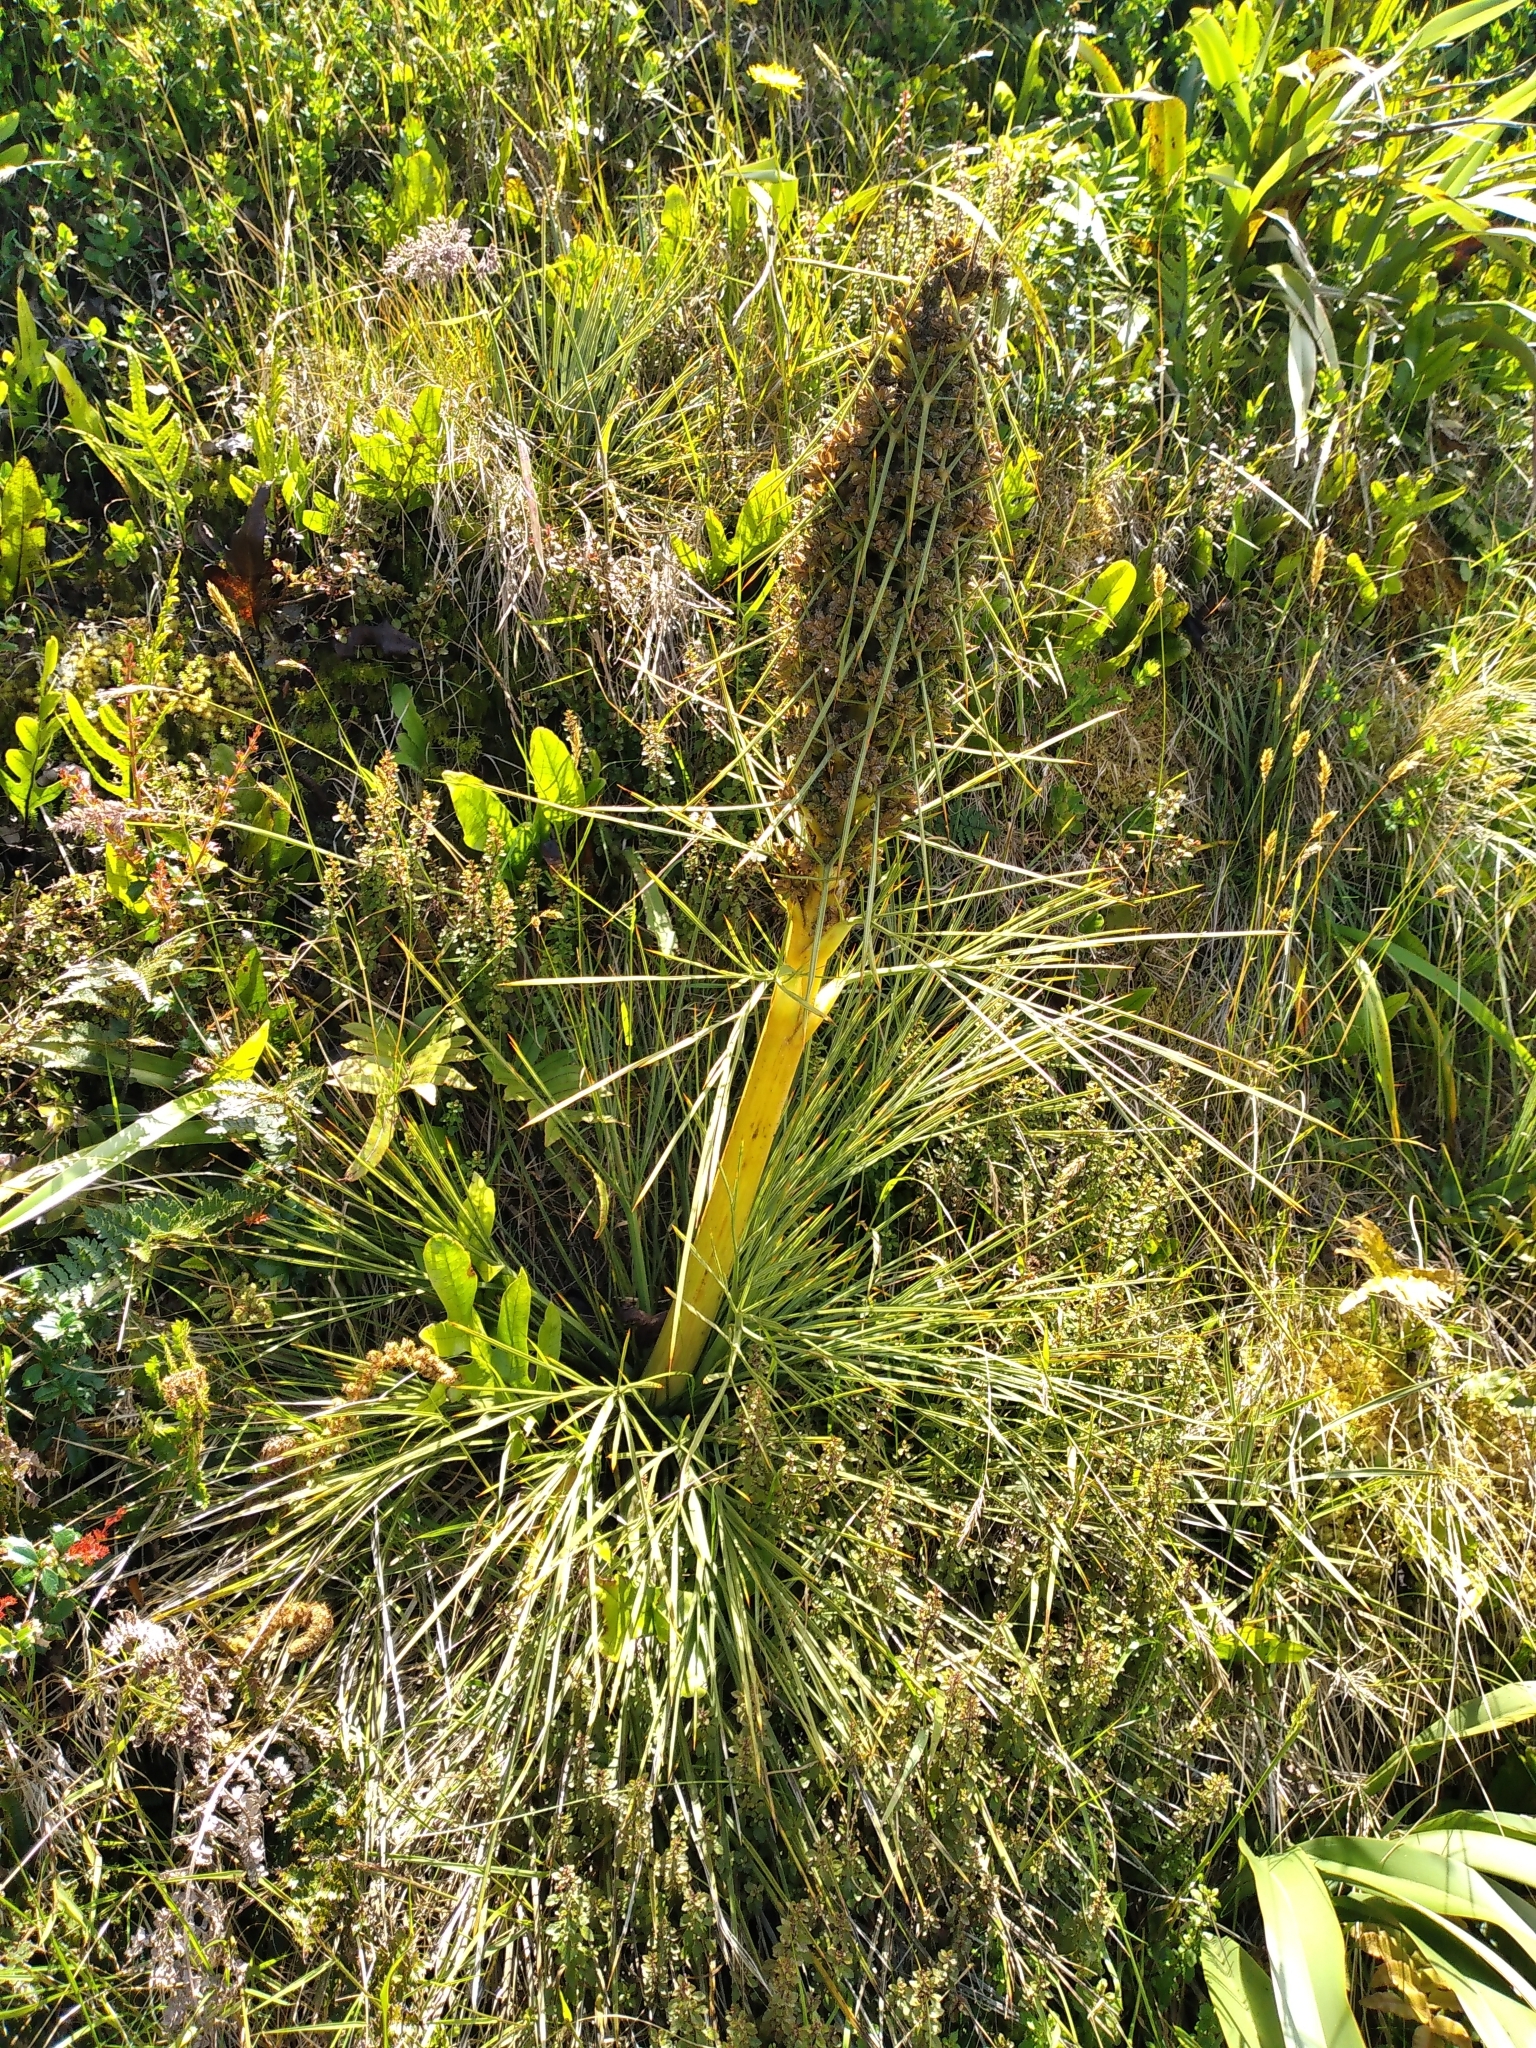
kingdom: Plantae
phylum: Tracheophyta
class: Magnoliopsida
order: Apiales
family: Apiaceae
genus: Aciphylla
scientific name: Aciphylla squarrosa
